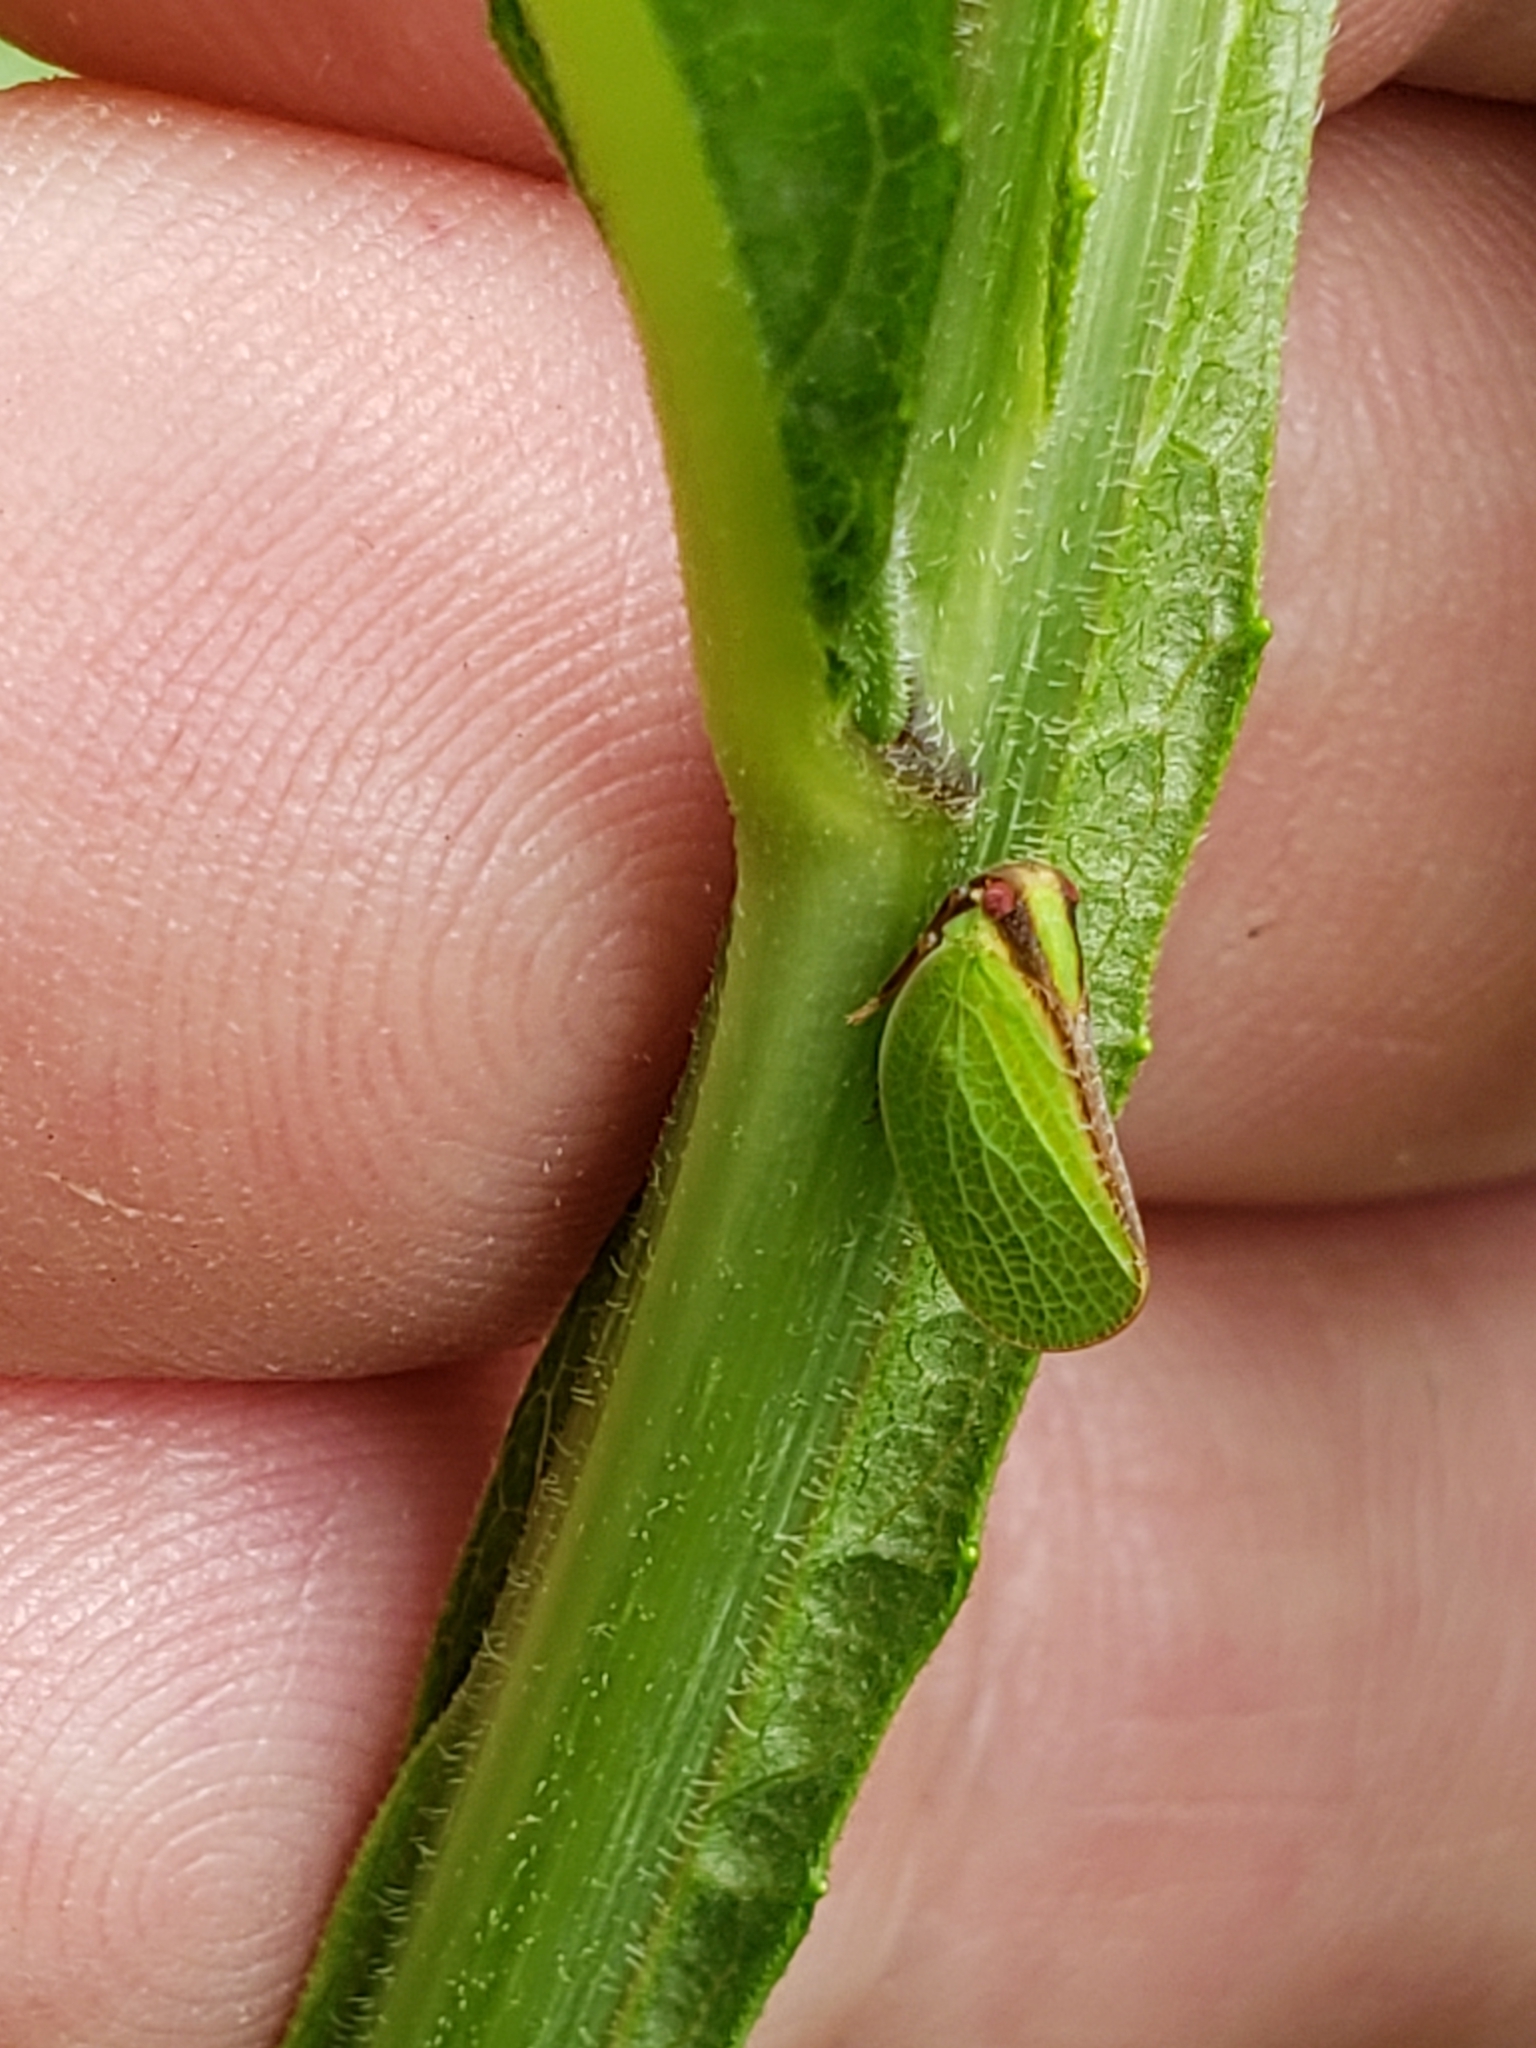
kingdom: Animalia
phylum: Arthropoda
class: Insecta
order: Hemiptera
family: Acanaloniidae
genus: Acanalonia
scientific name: Acanalonia bivittata
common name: Two-striped planthopper
